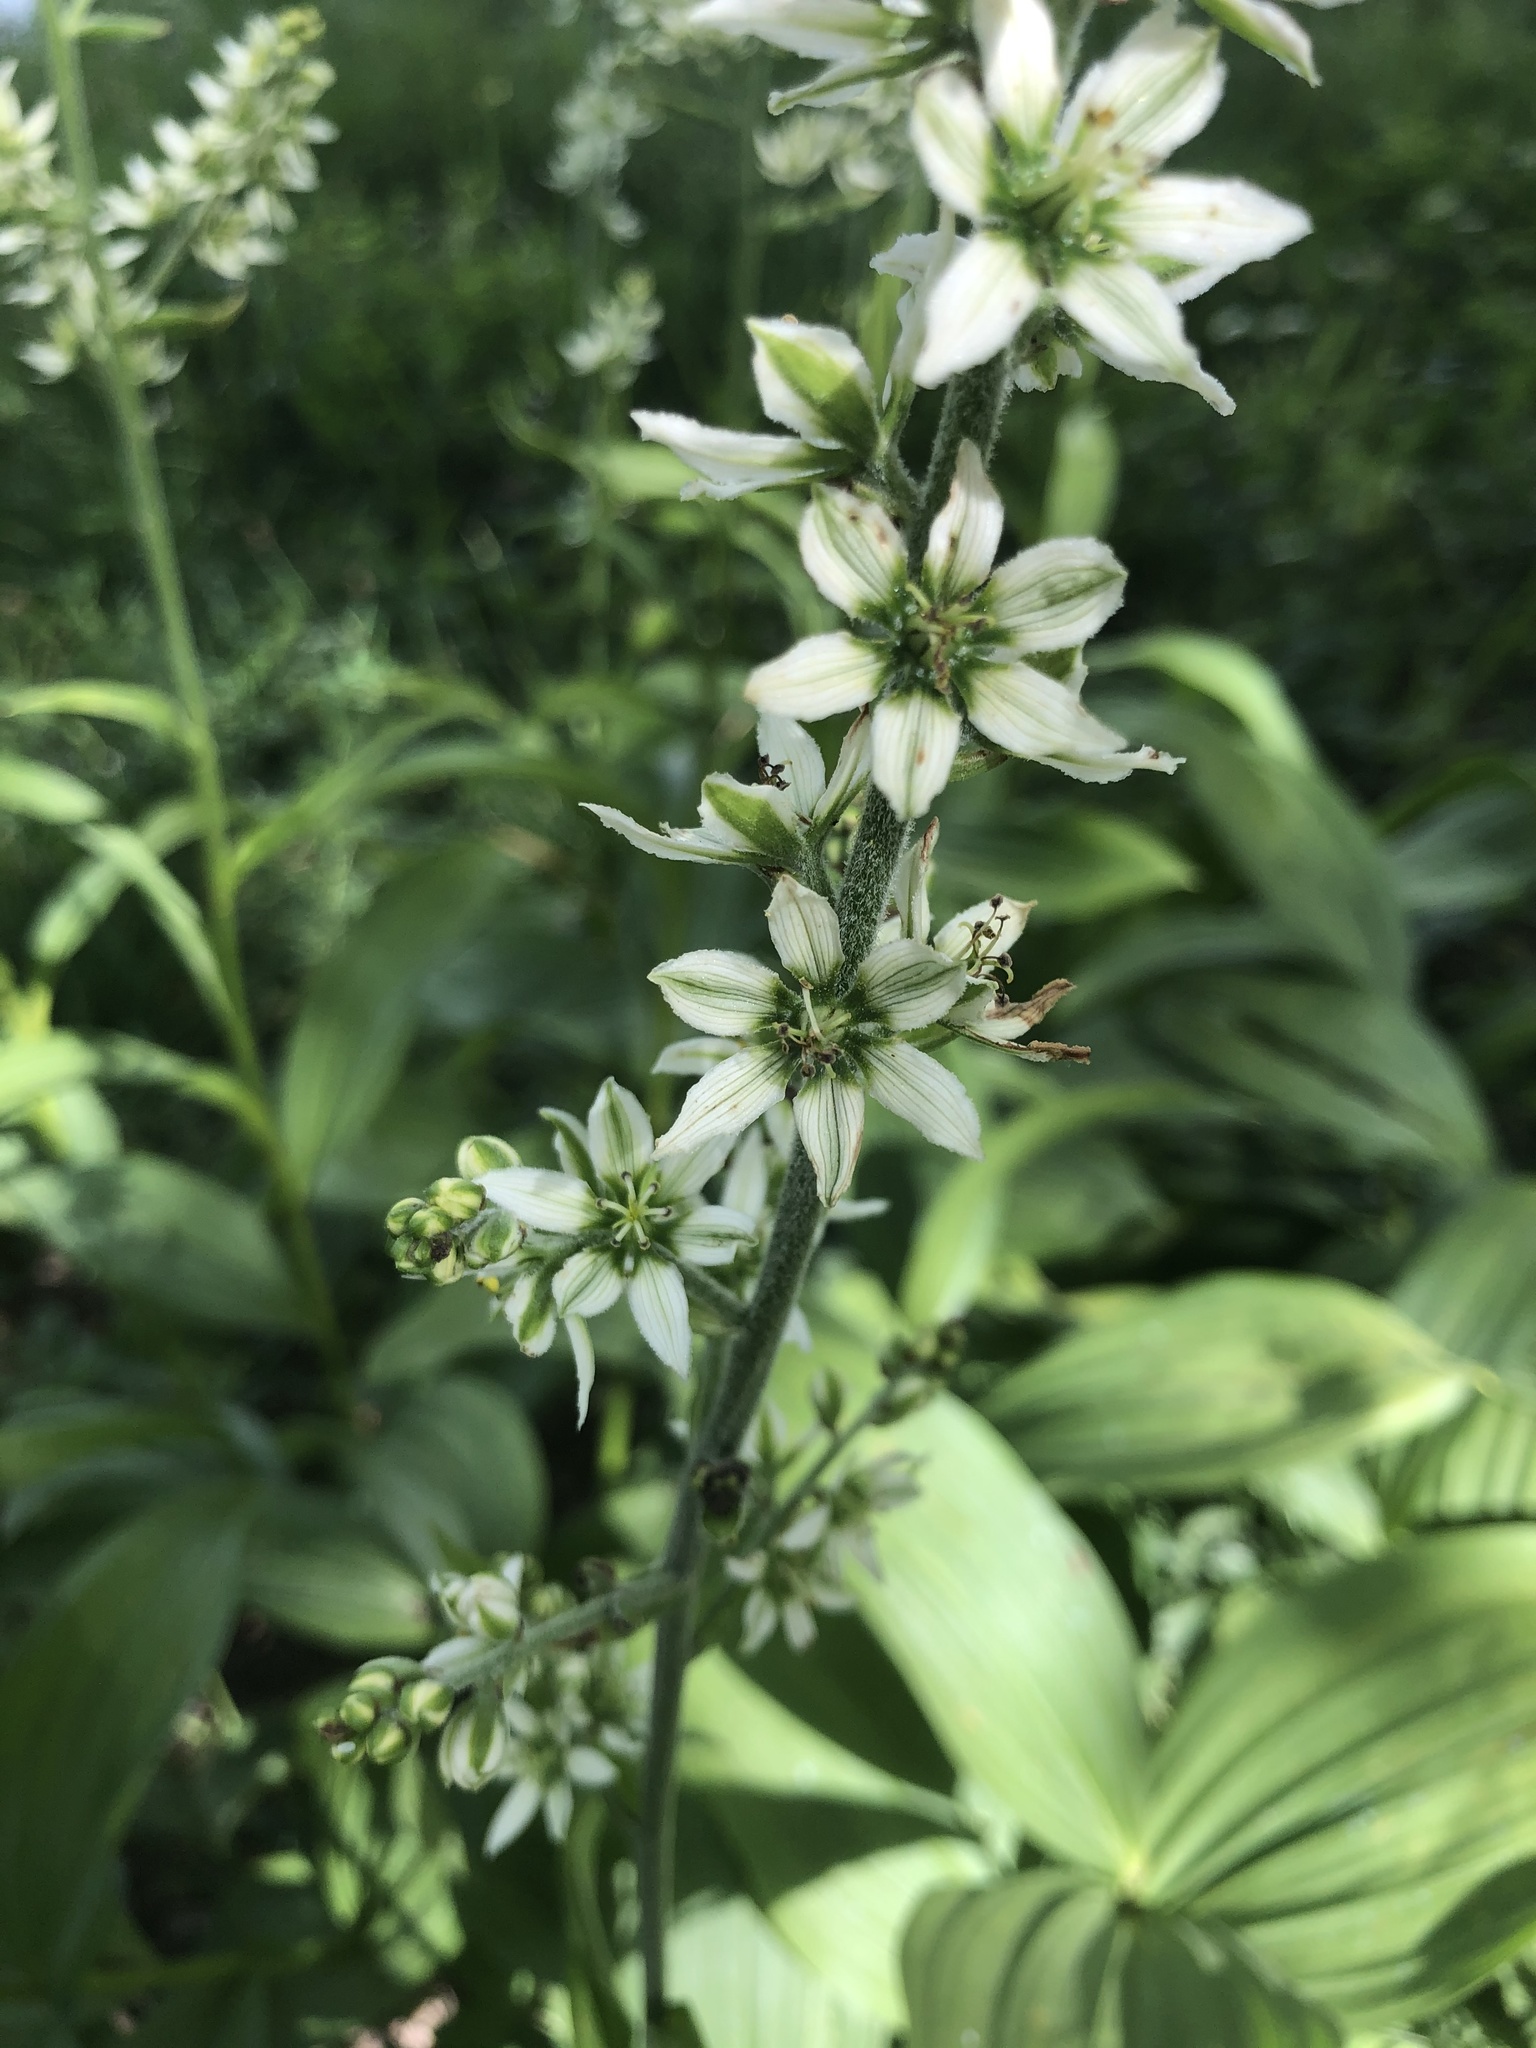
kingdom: Plantae
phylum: Tracheophyta
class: Liliopsida
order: Liliales
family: Melanthiaceae
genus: Veratrum
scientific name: Veratrum album
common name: White veratrum
